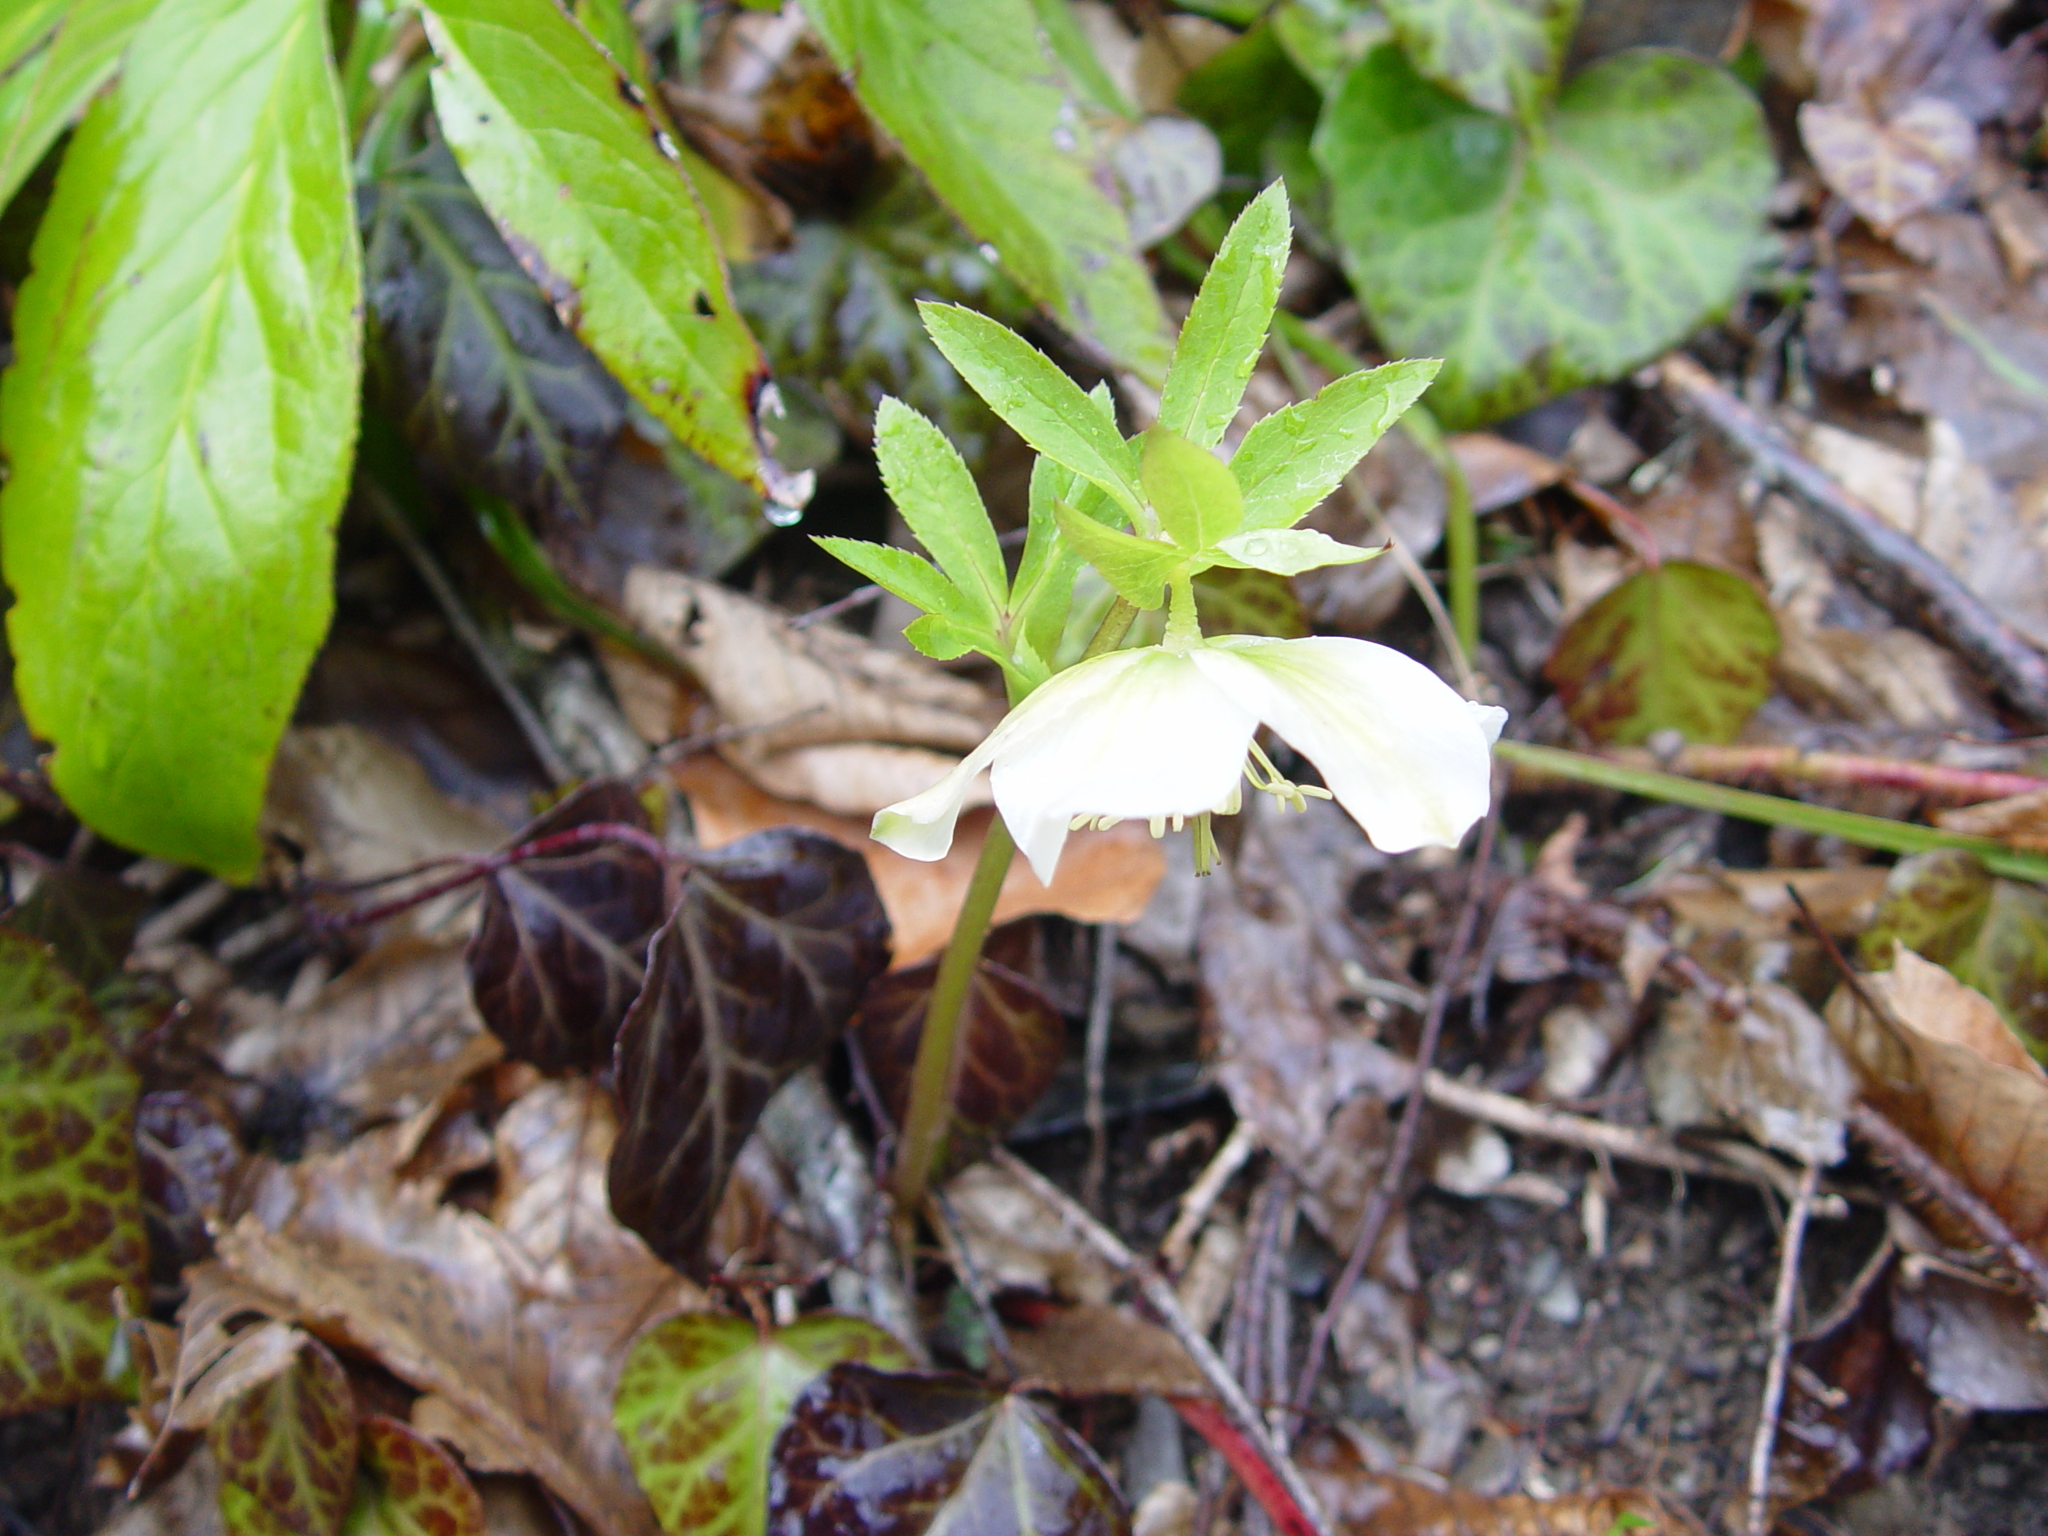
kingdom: Plantae
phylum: Tracheophyta
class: Magnoliopsida
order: Ranunculales
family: Ranunculaceae
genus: Helleborus
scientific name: Helleborus orientalis
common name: Lenten-rose
